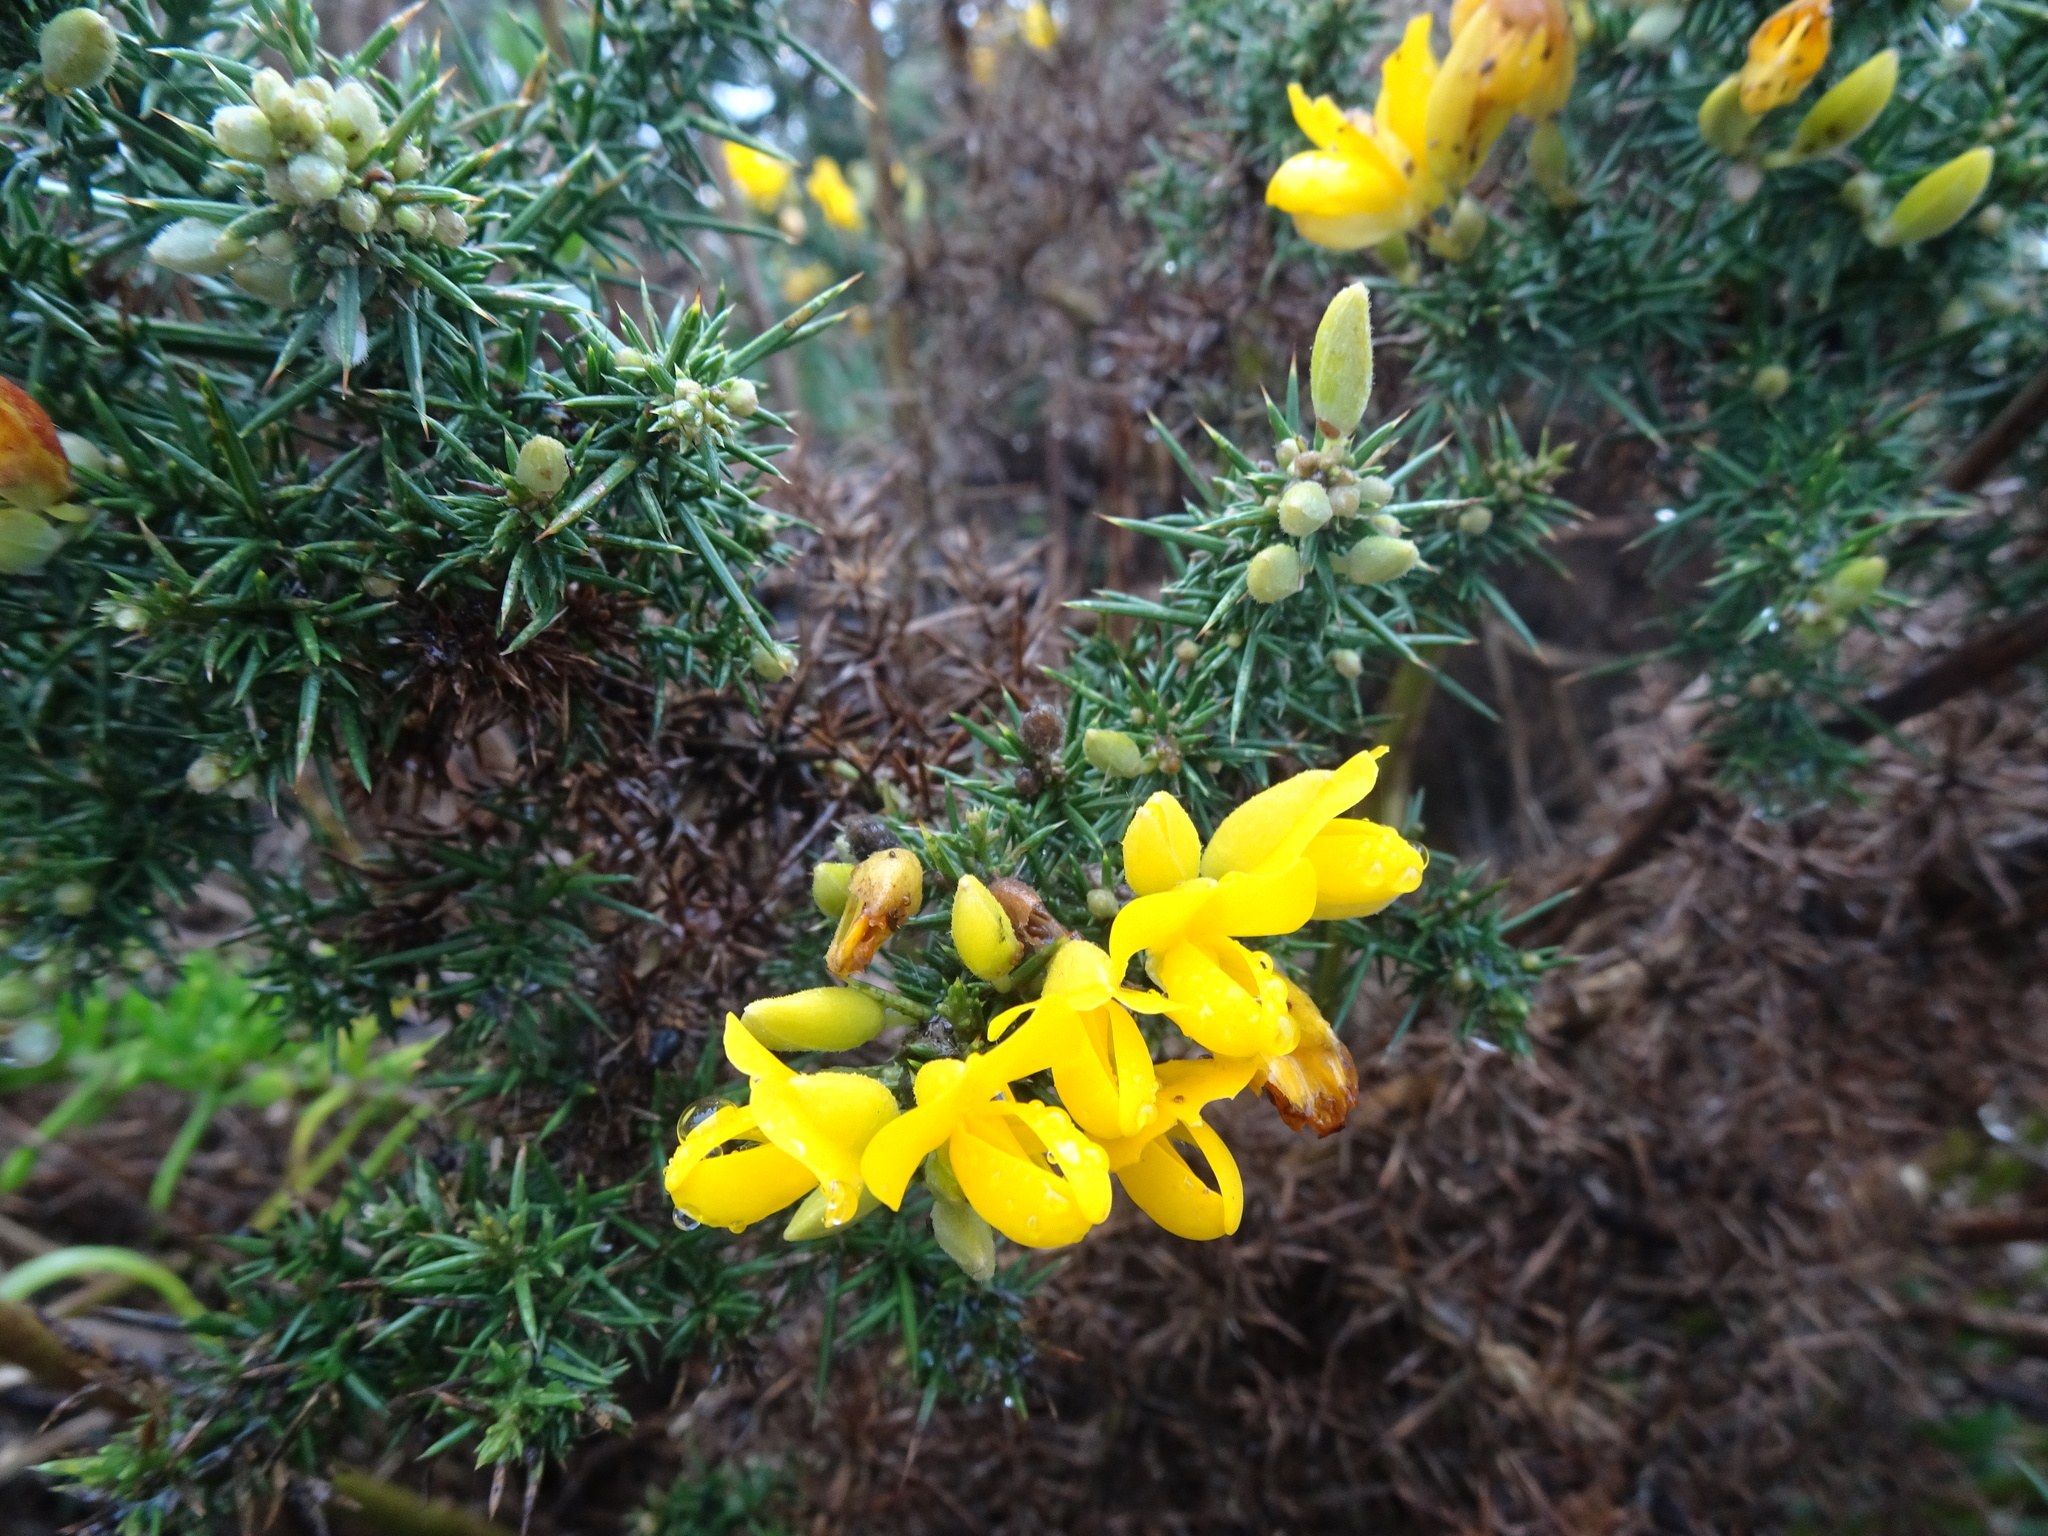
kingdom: Plantae
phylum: Tracheophyta
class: Magnoliopsida
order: Fabales
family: Fabaceae
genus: Ulex
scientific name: Ulex europaeus
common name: Common gorse
